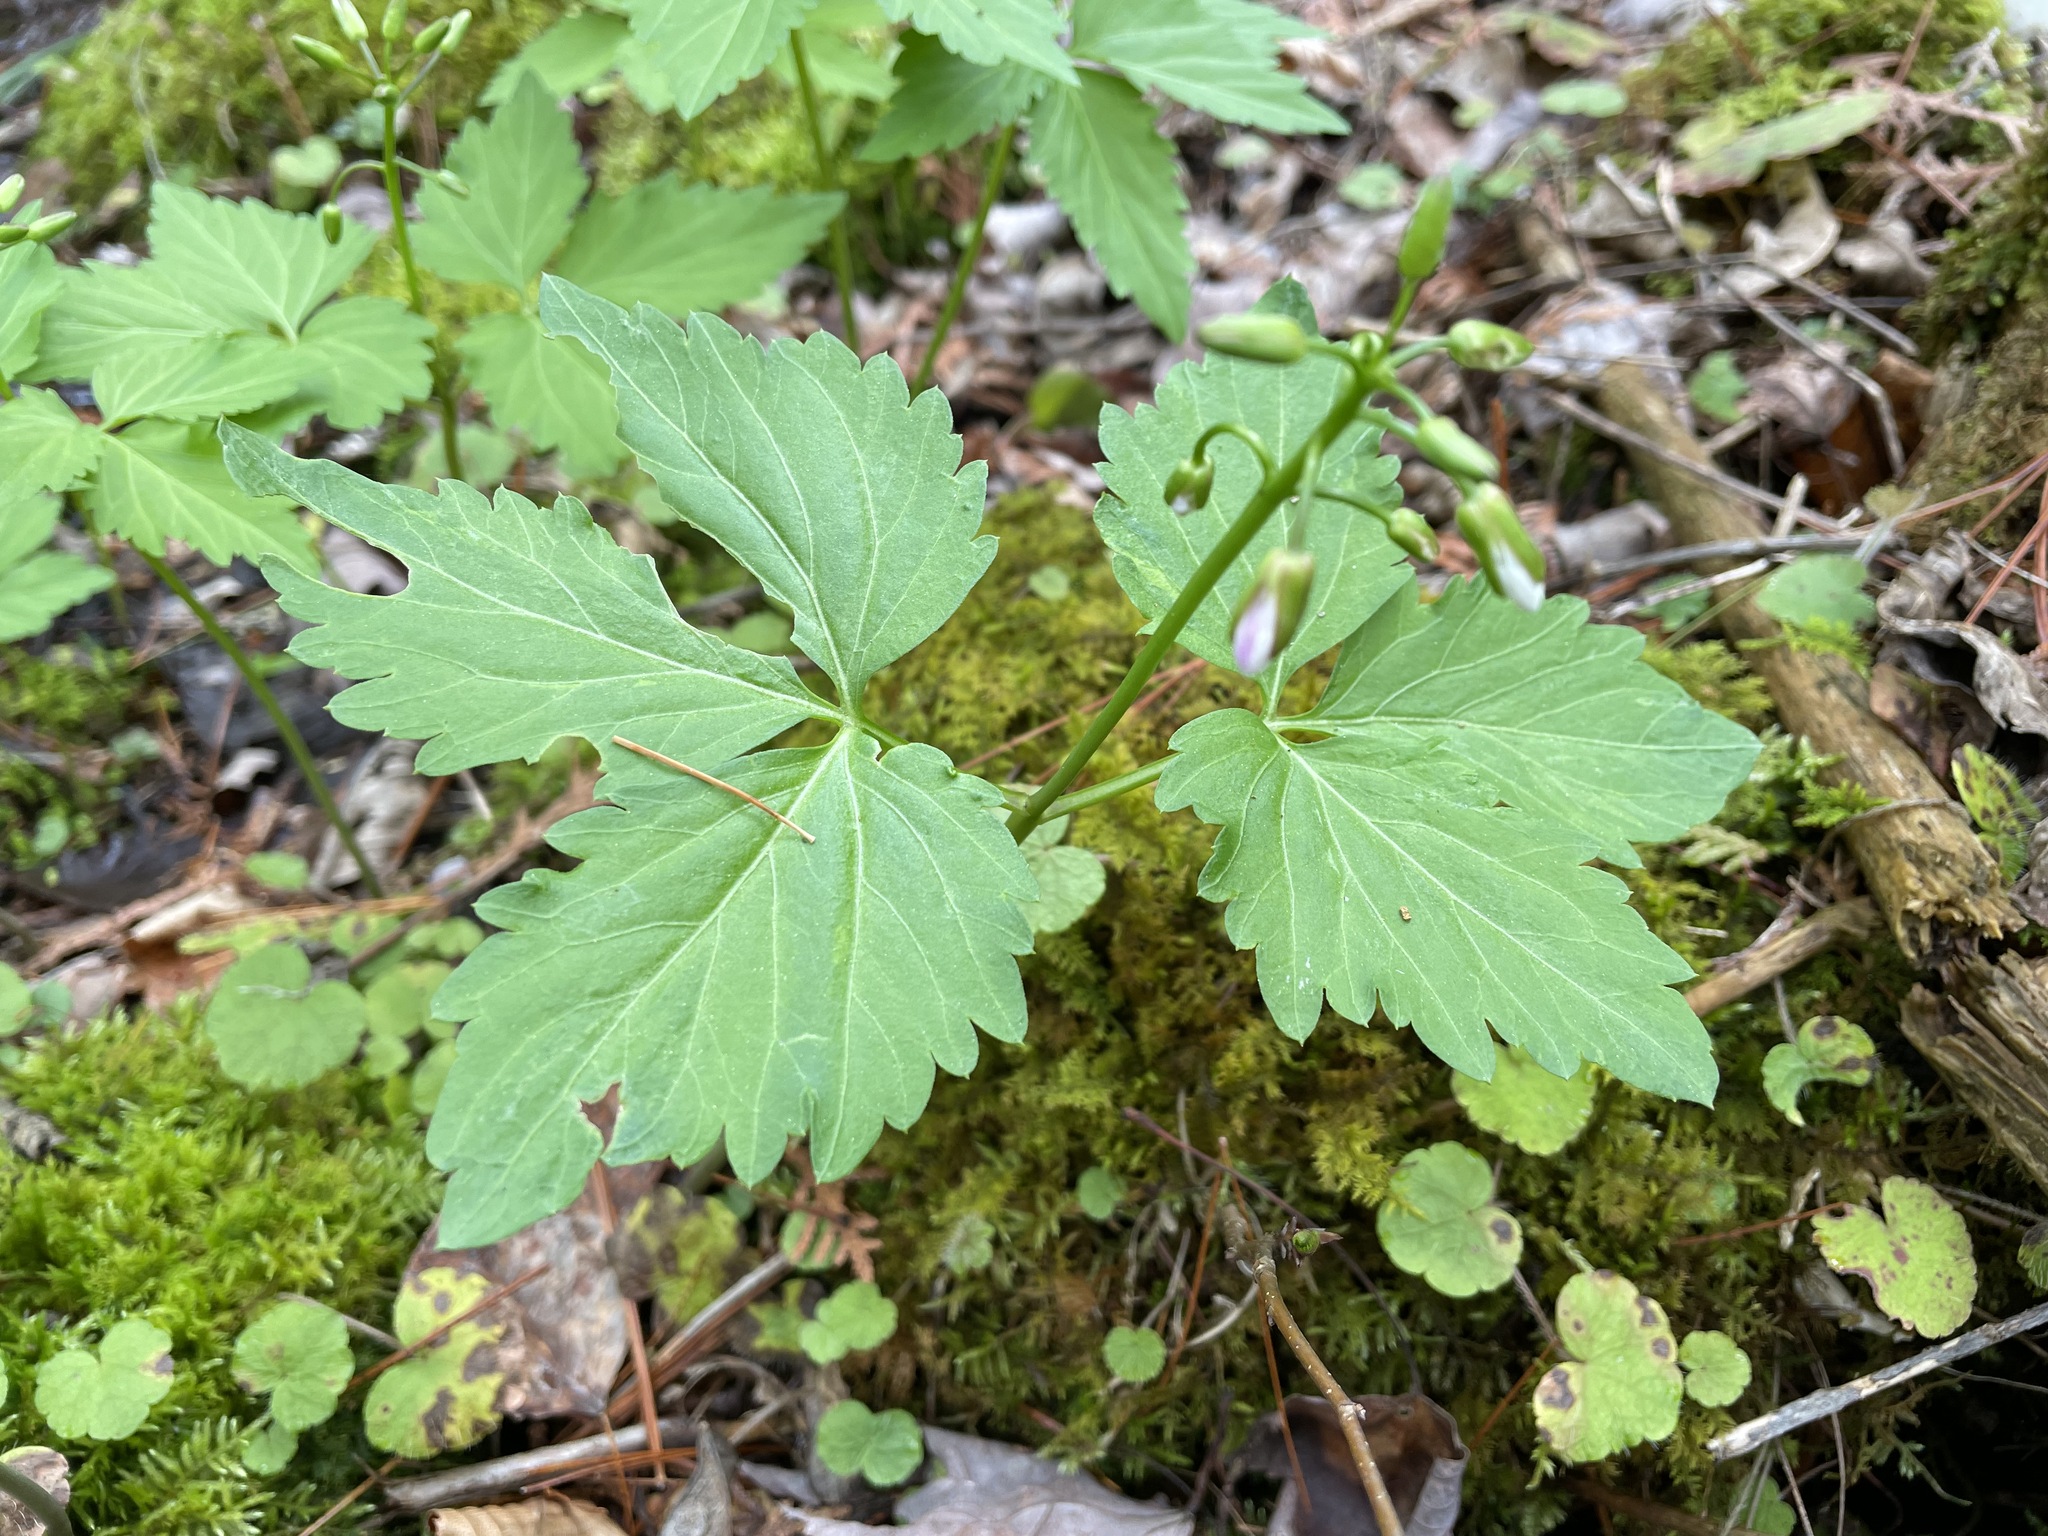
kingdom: Plantae
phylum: Tracheophyta
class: Magnoliopsida
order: Brassicales
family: Brassicaceae
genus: Cardamine
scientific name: Cardamine diphylla
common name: Broad-leaved toothwort
